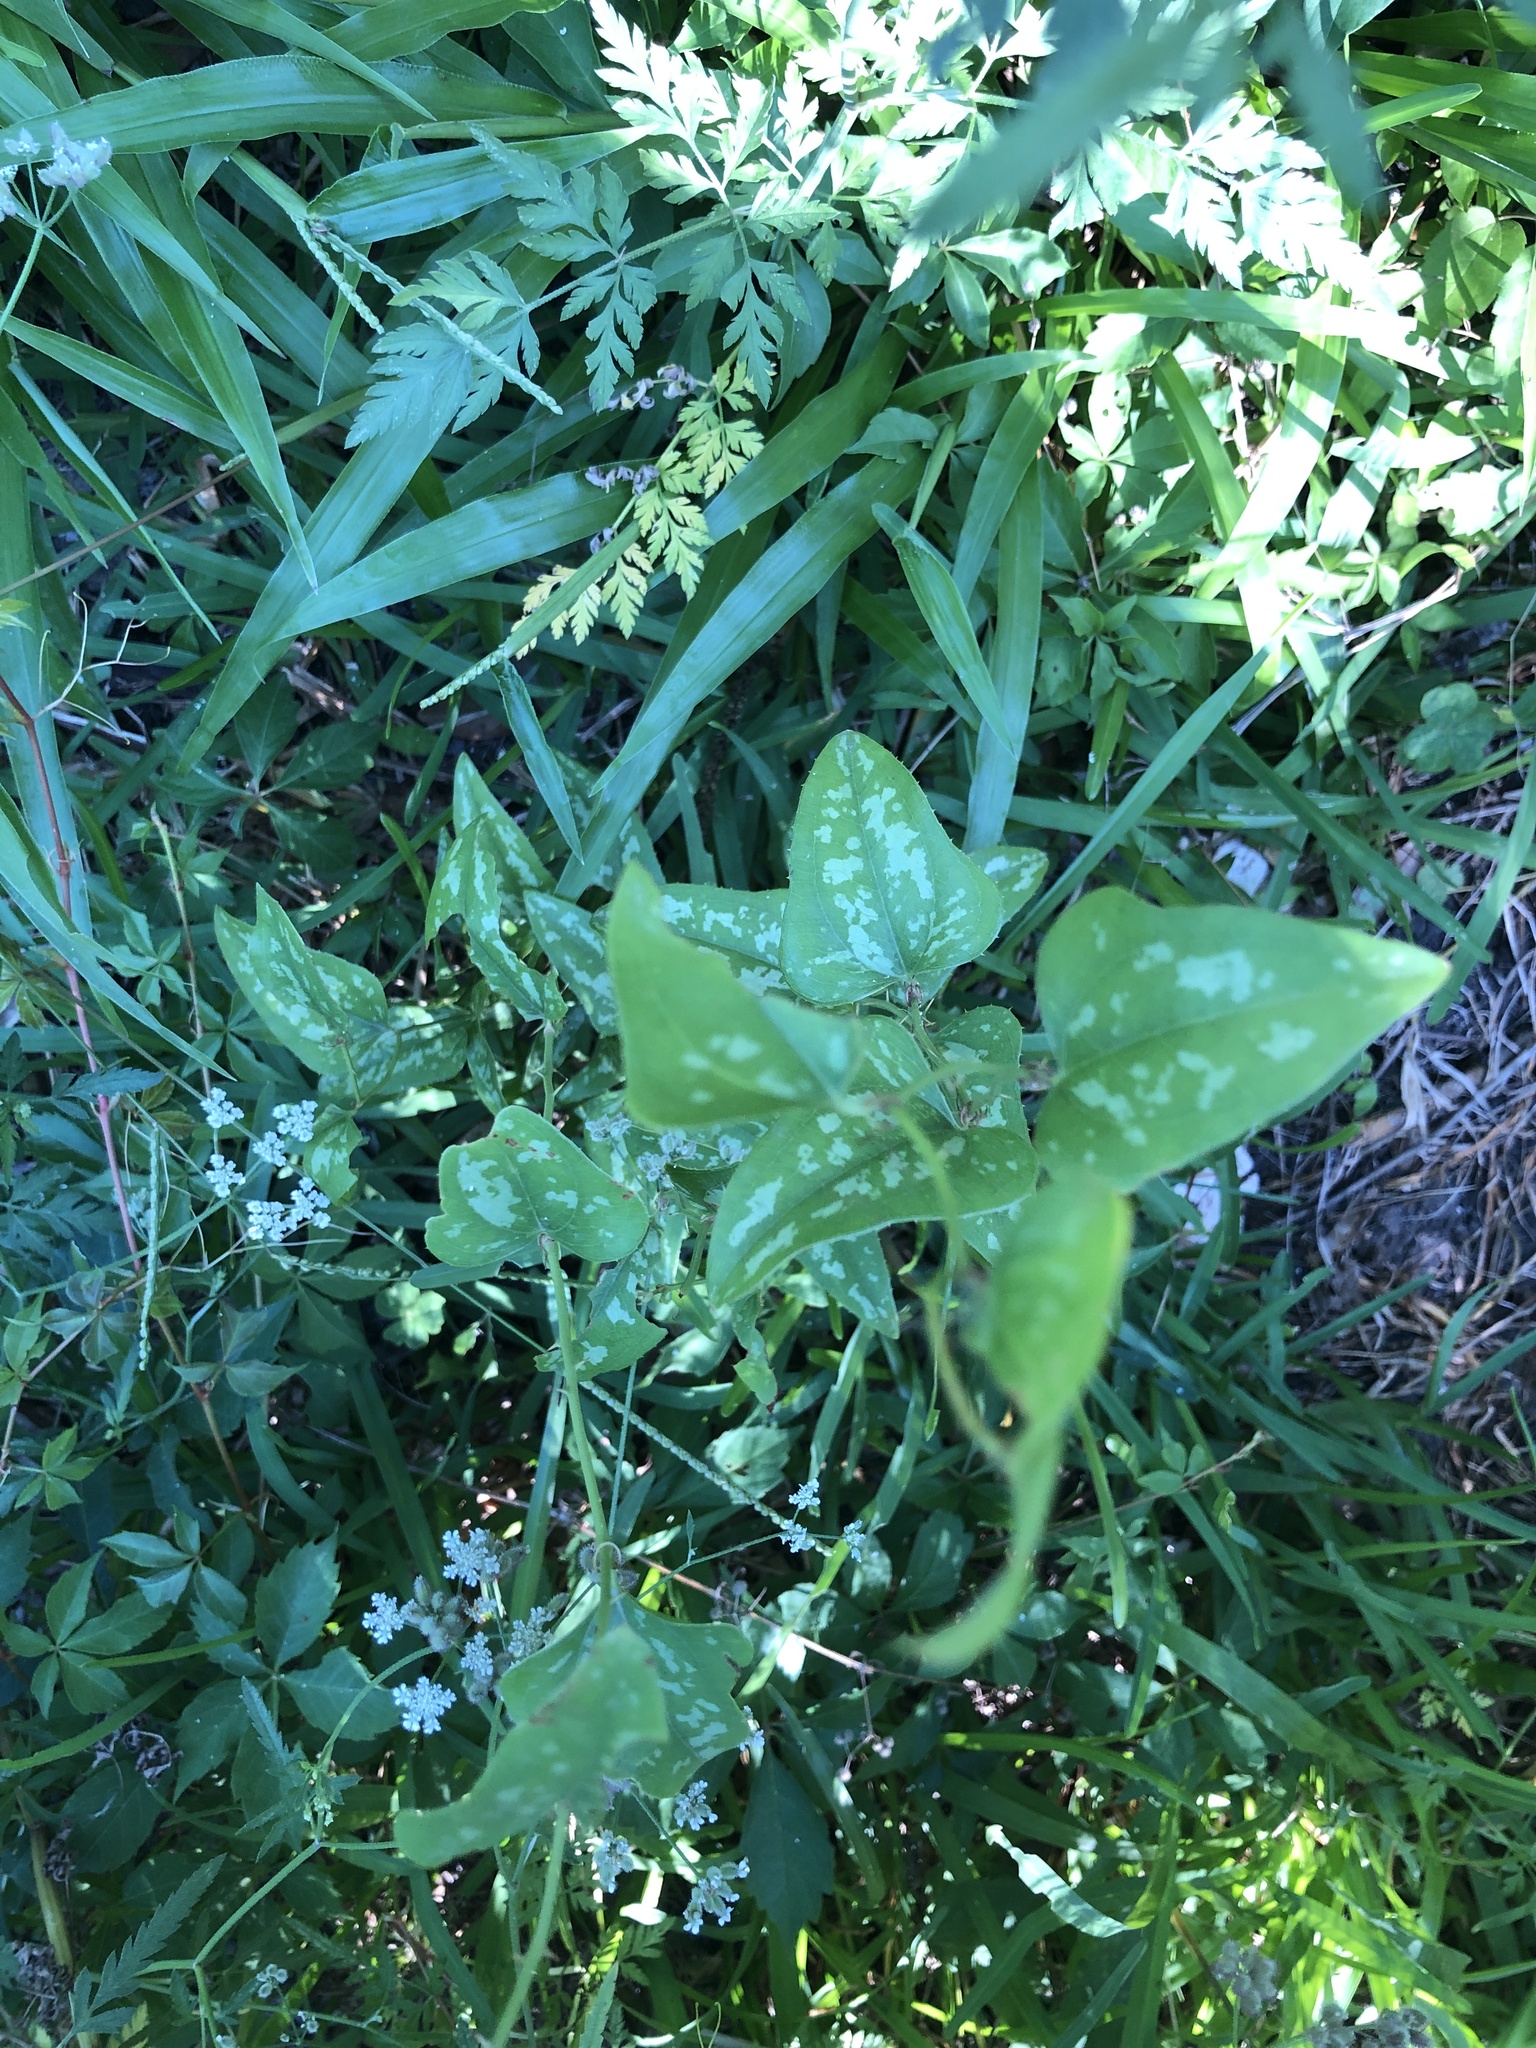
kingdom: Plantae
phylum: Tracheophyta
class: Liliopsida
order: Liliales
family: Smilacaceae
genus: Smilax
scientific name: Smilax bona-nox
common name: Catbrier
